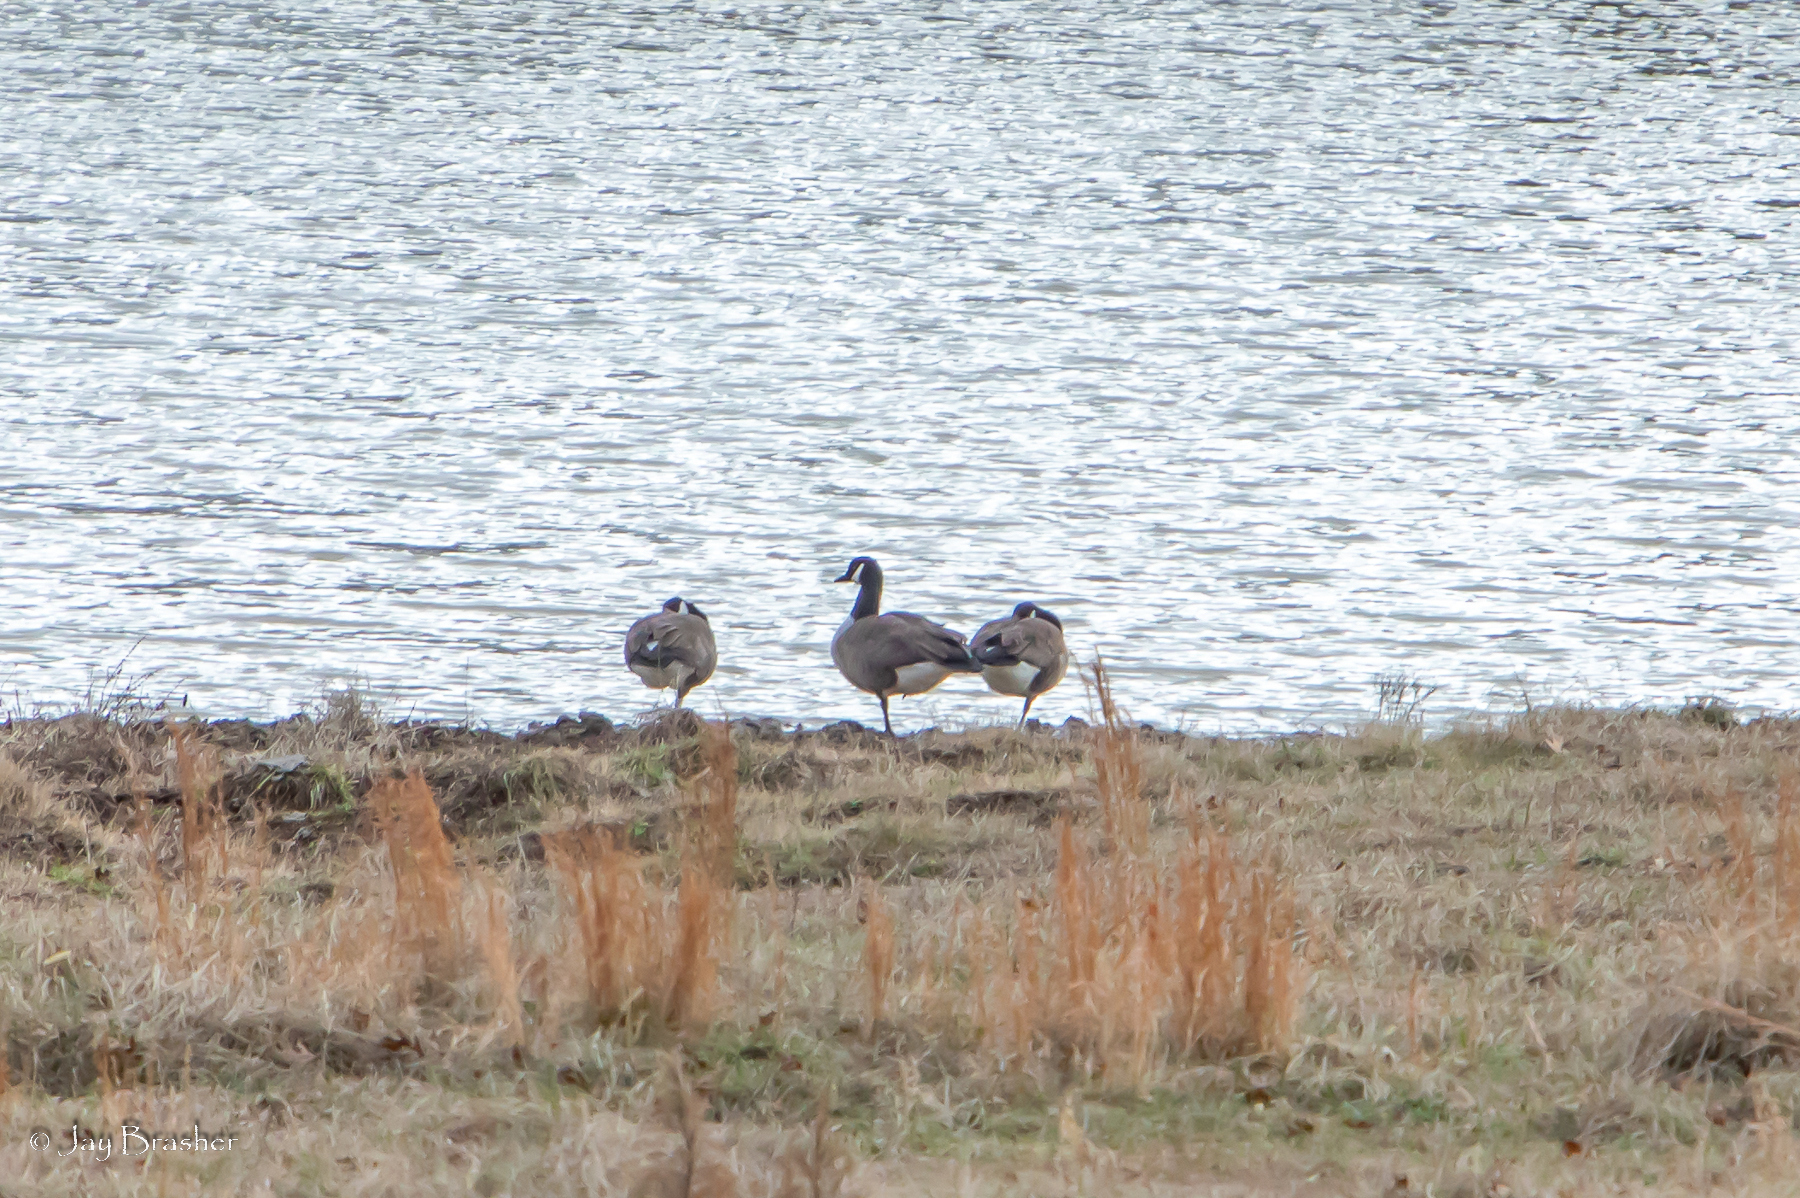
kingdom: Animalia
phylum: Chordata
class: Aves
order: Anseriformes
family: Anatidae
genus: Branta
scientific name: Branta canadensis
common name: Canada goose
